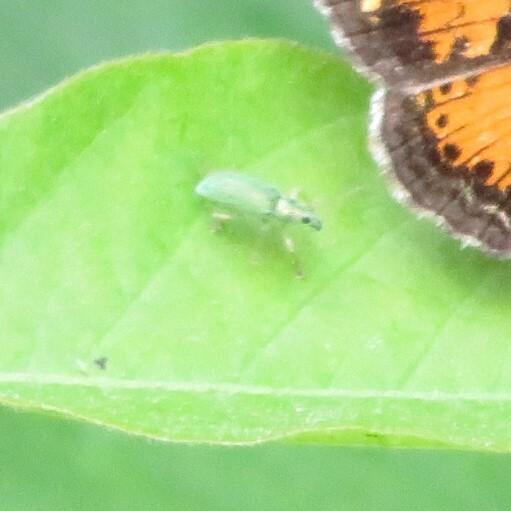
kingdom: Animalia
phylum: Arthropoda
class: Insecta
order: Coleoptera
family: Curculionidae
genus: Polydrusus
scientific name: Polydrusus formosus
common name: Weevil
